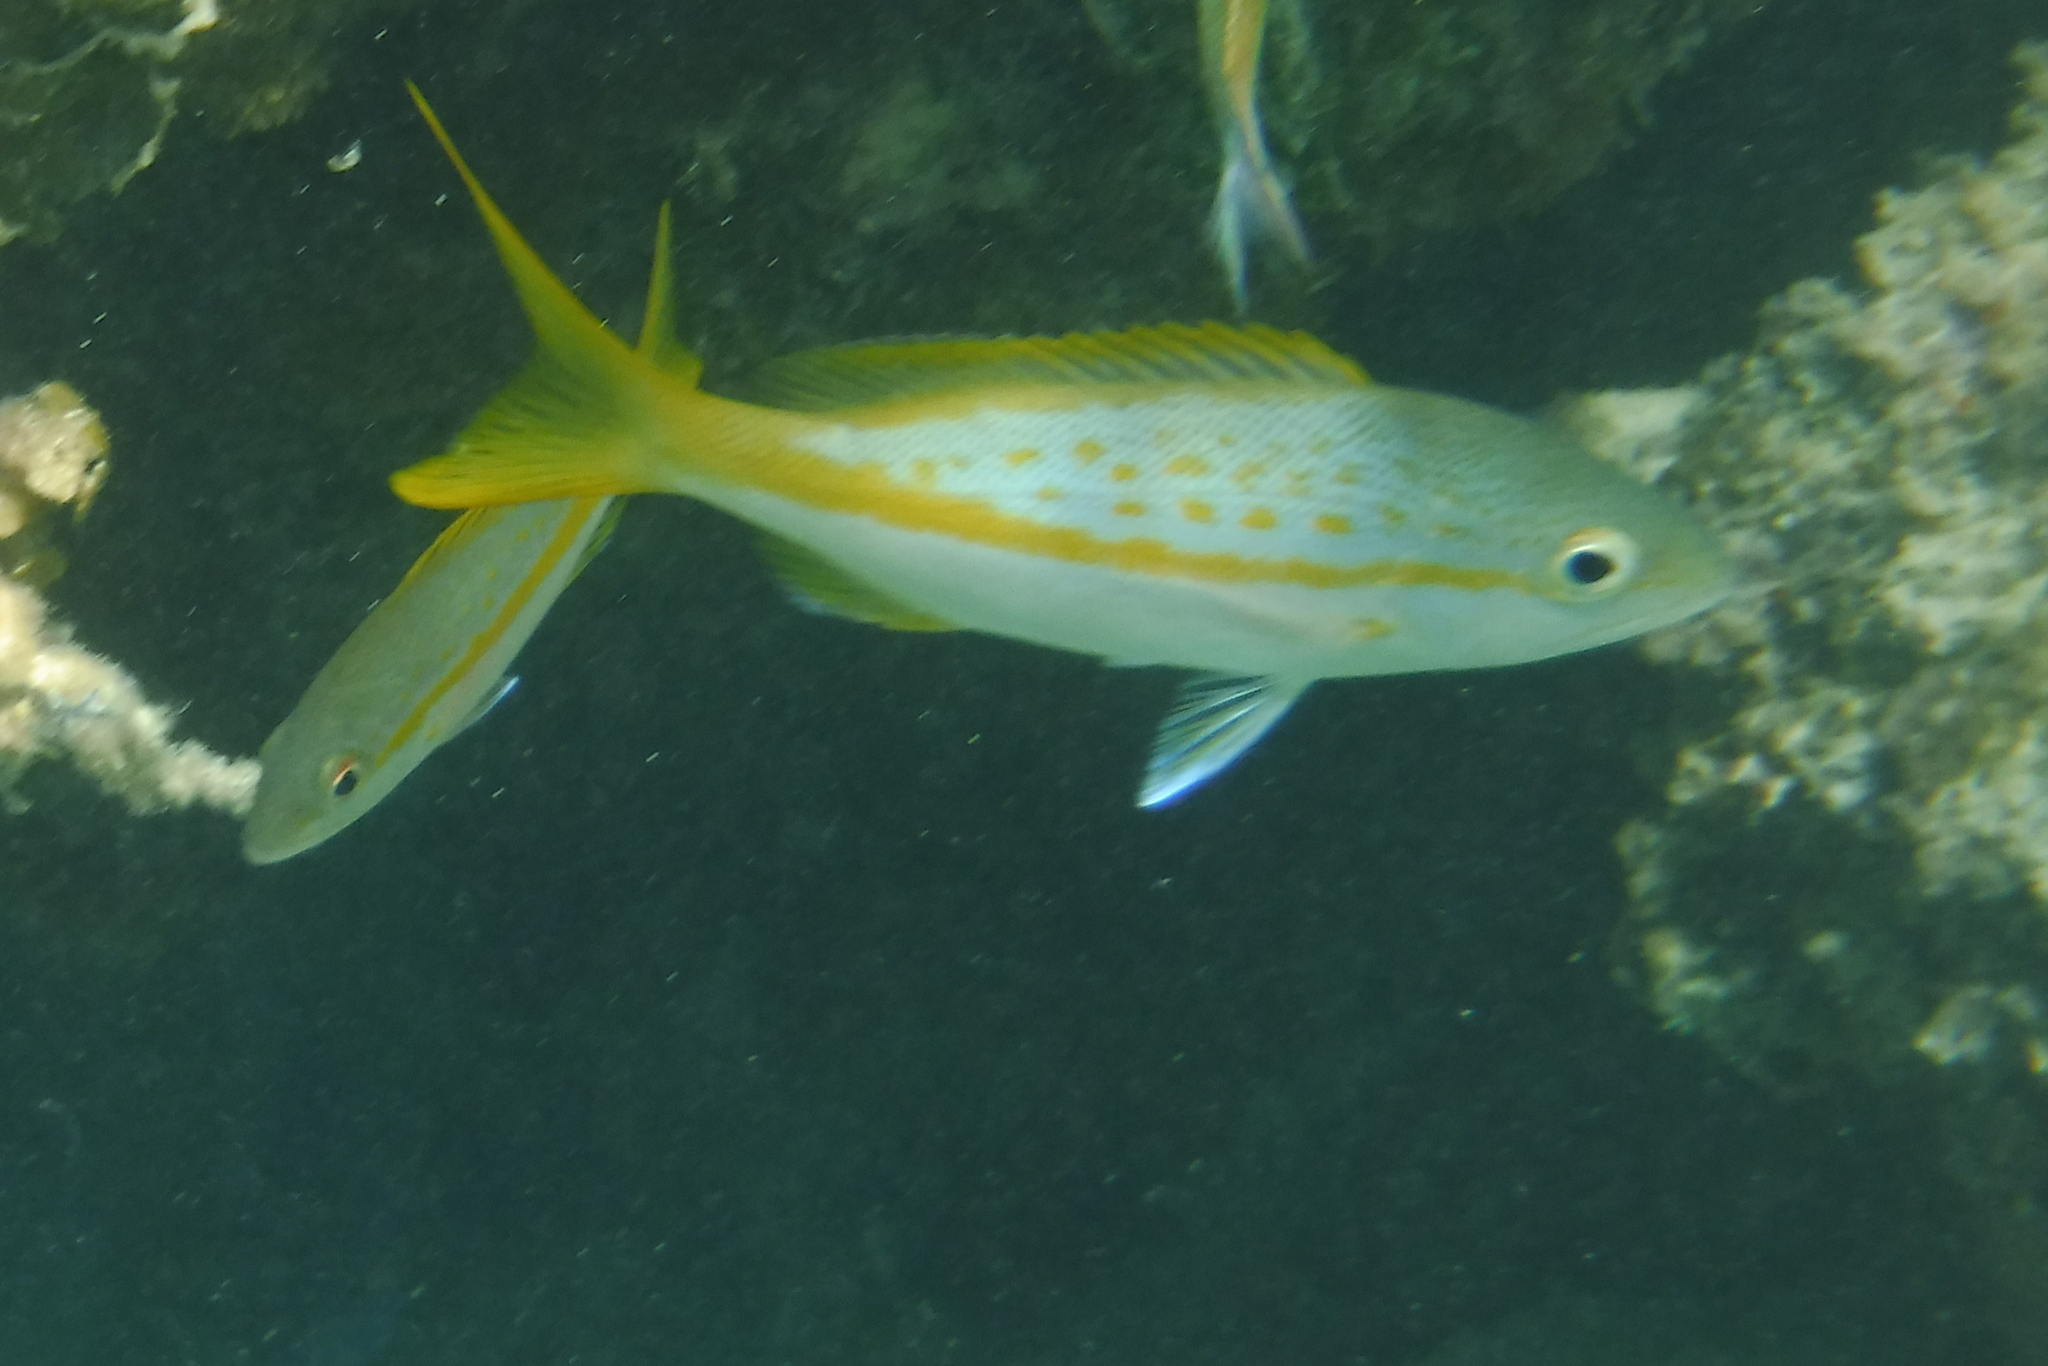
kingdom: Animalia
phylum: Chordata
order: Perciformes
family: Lutjanidae
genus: Ocyurus
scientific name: Ocyurus chrysurus
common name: Yellowtail snapper
